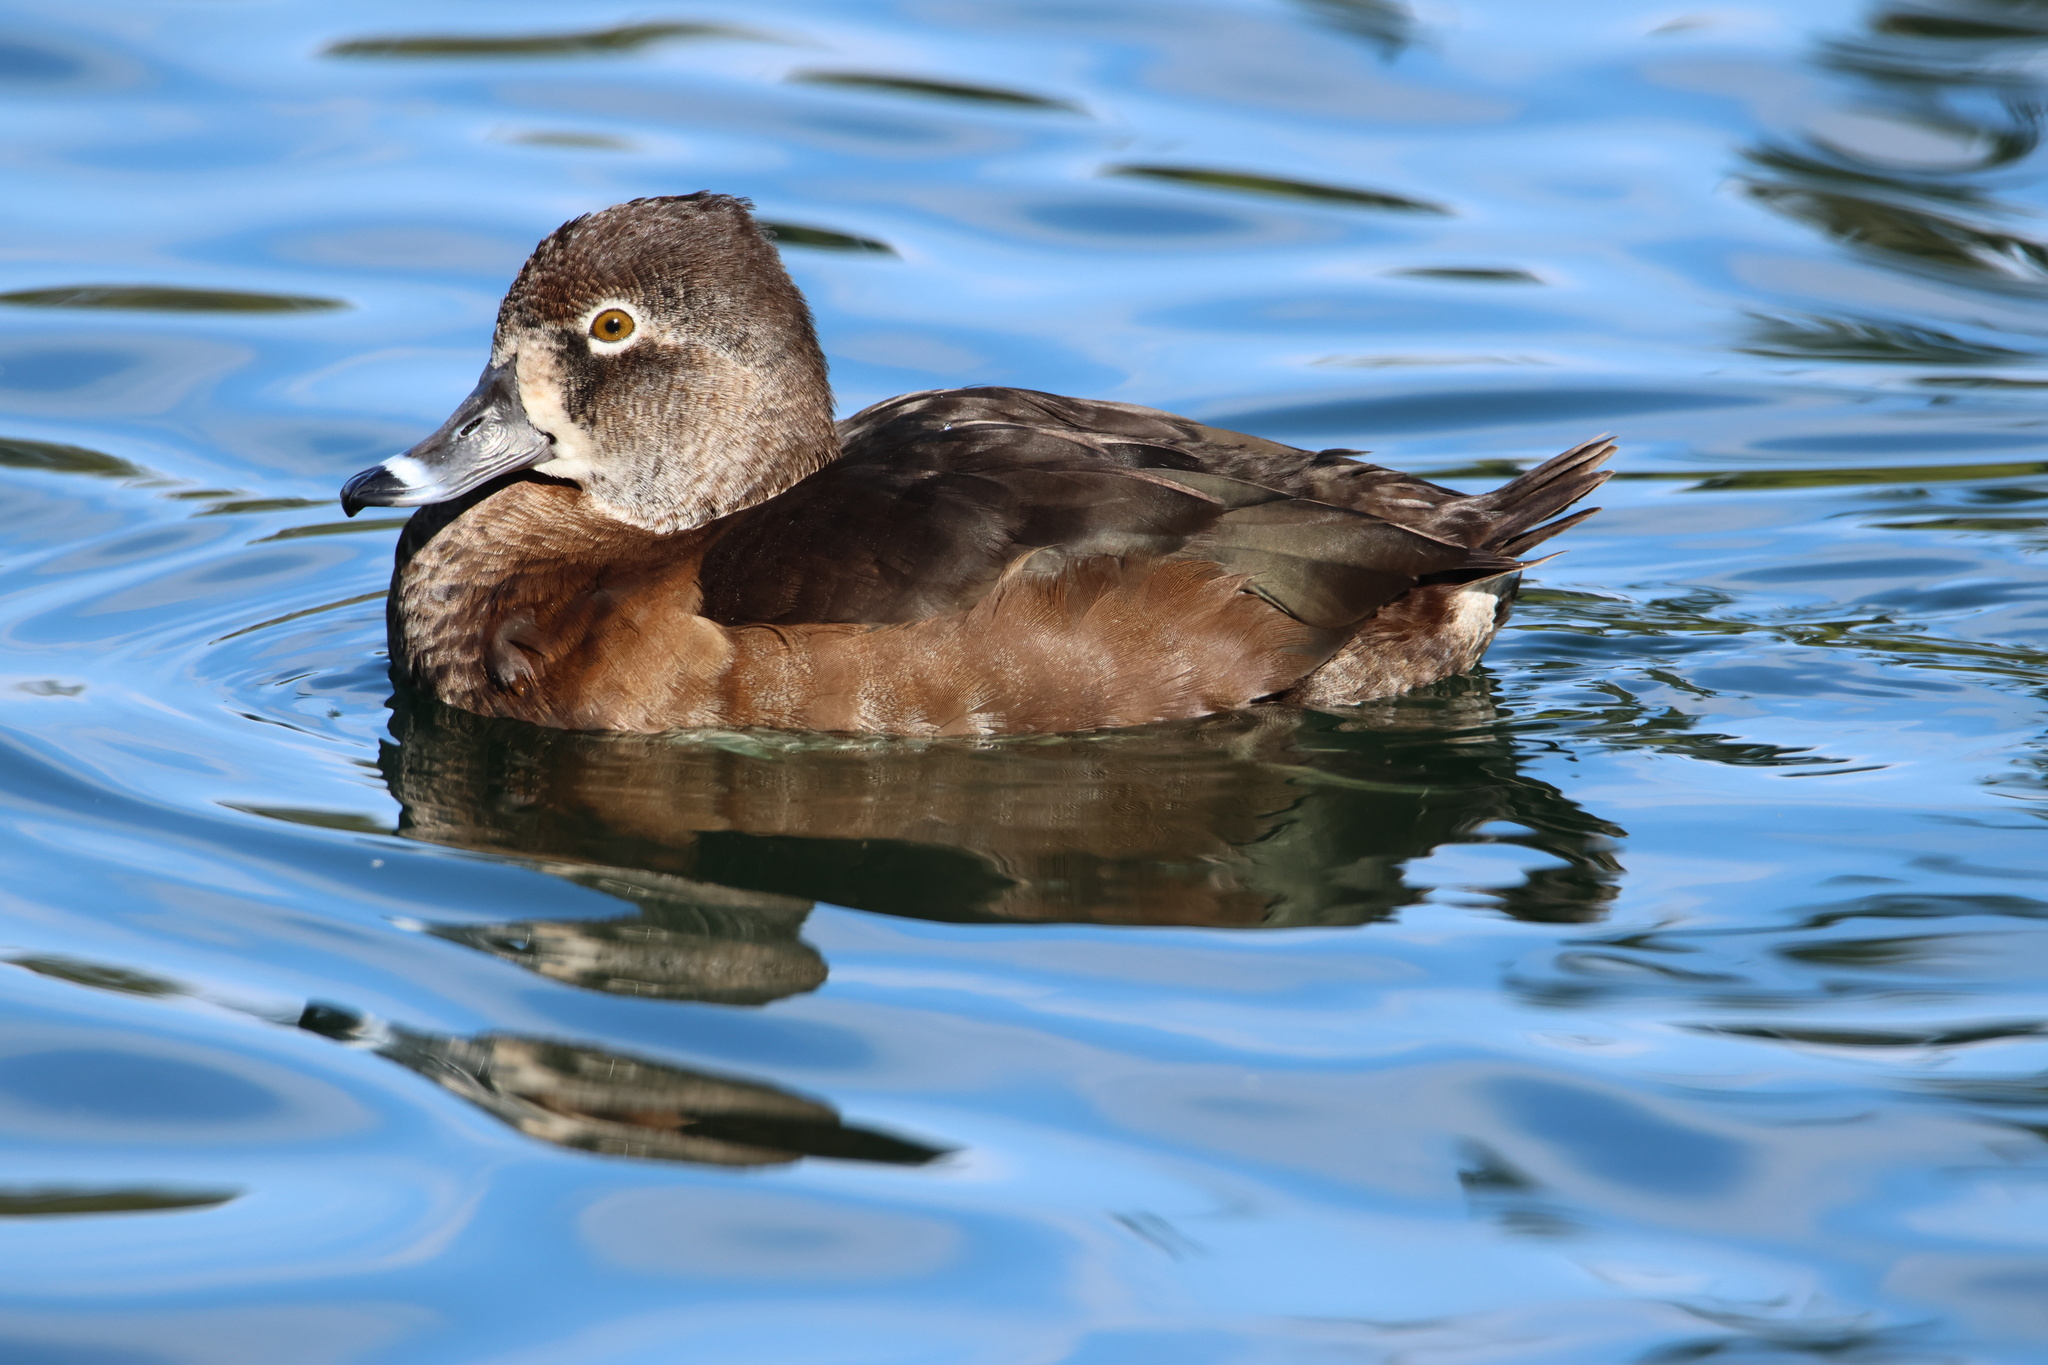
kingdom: Animalia
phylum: Chordata
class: Aves
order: Anseriformes
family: Anatidae
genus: Aythya
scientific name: Aythya collaris
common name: Ring-necked duck
